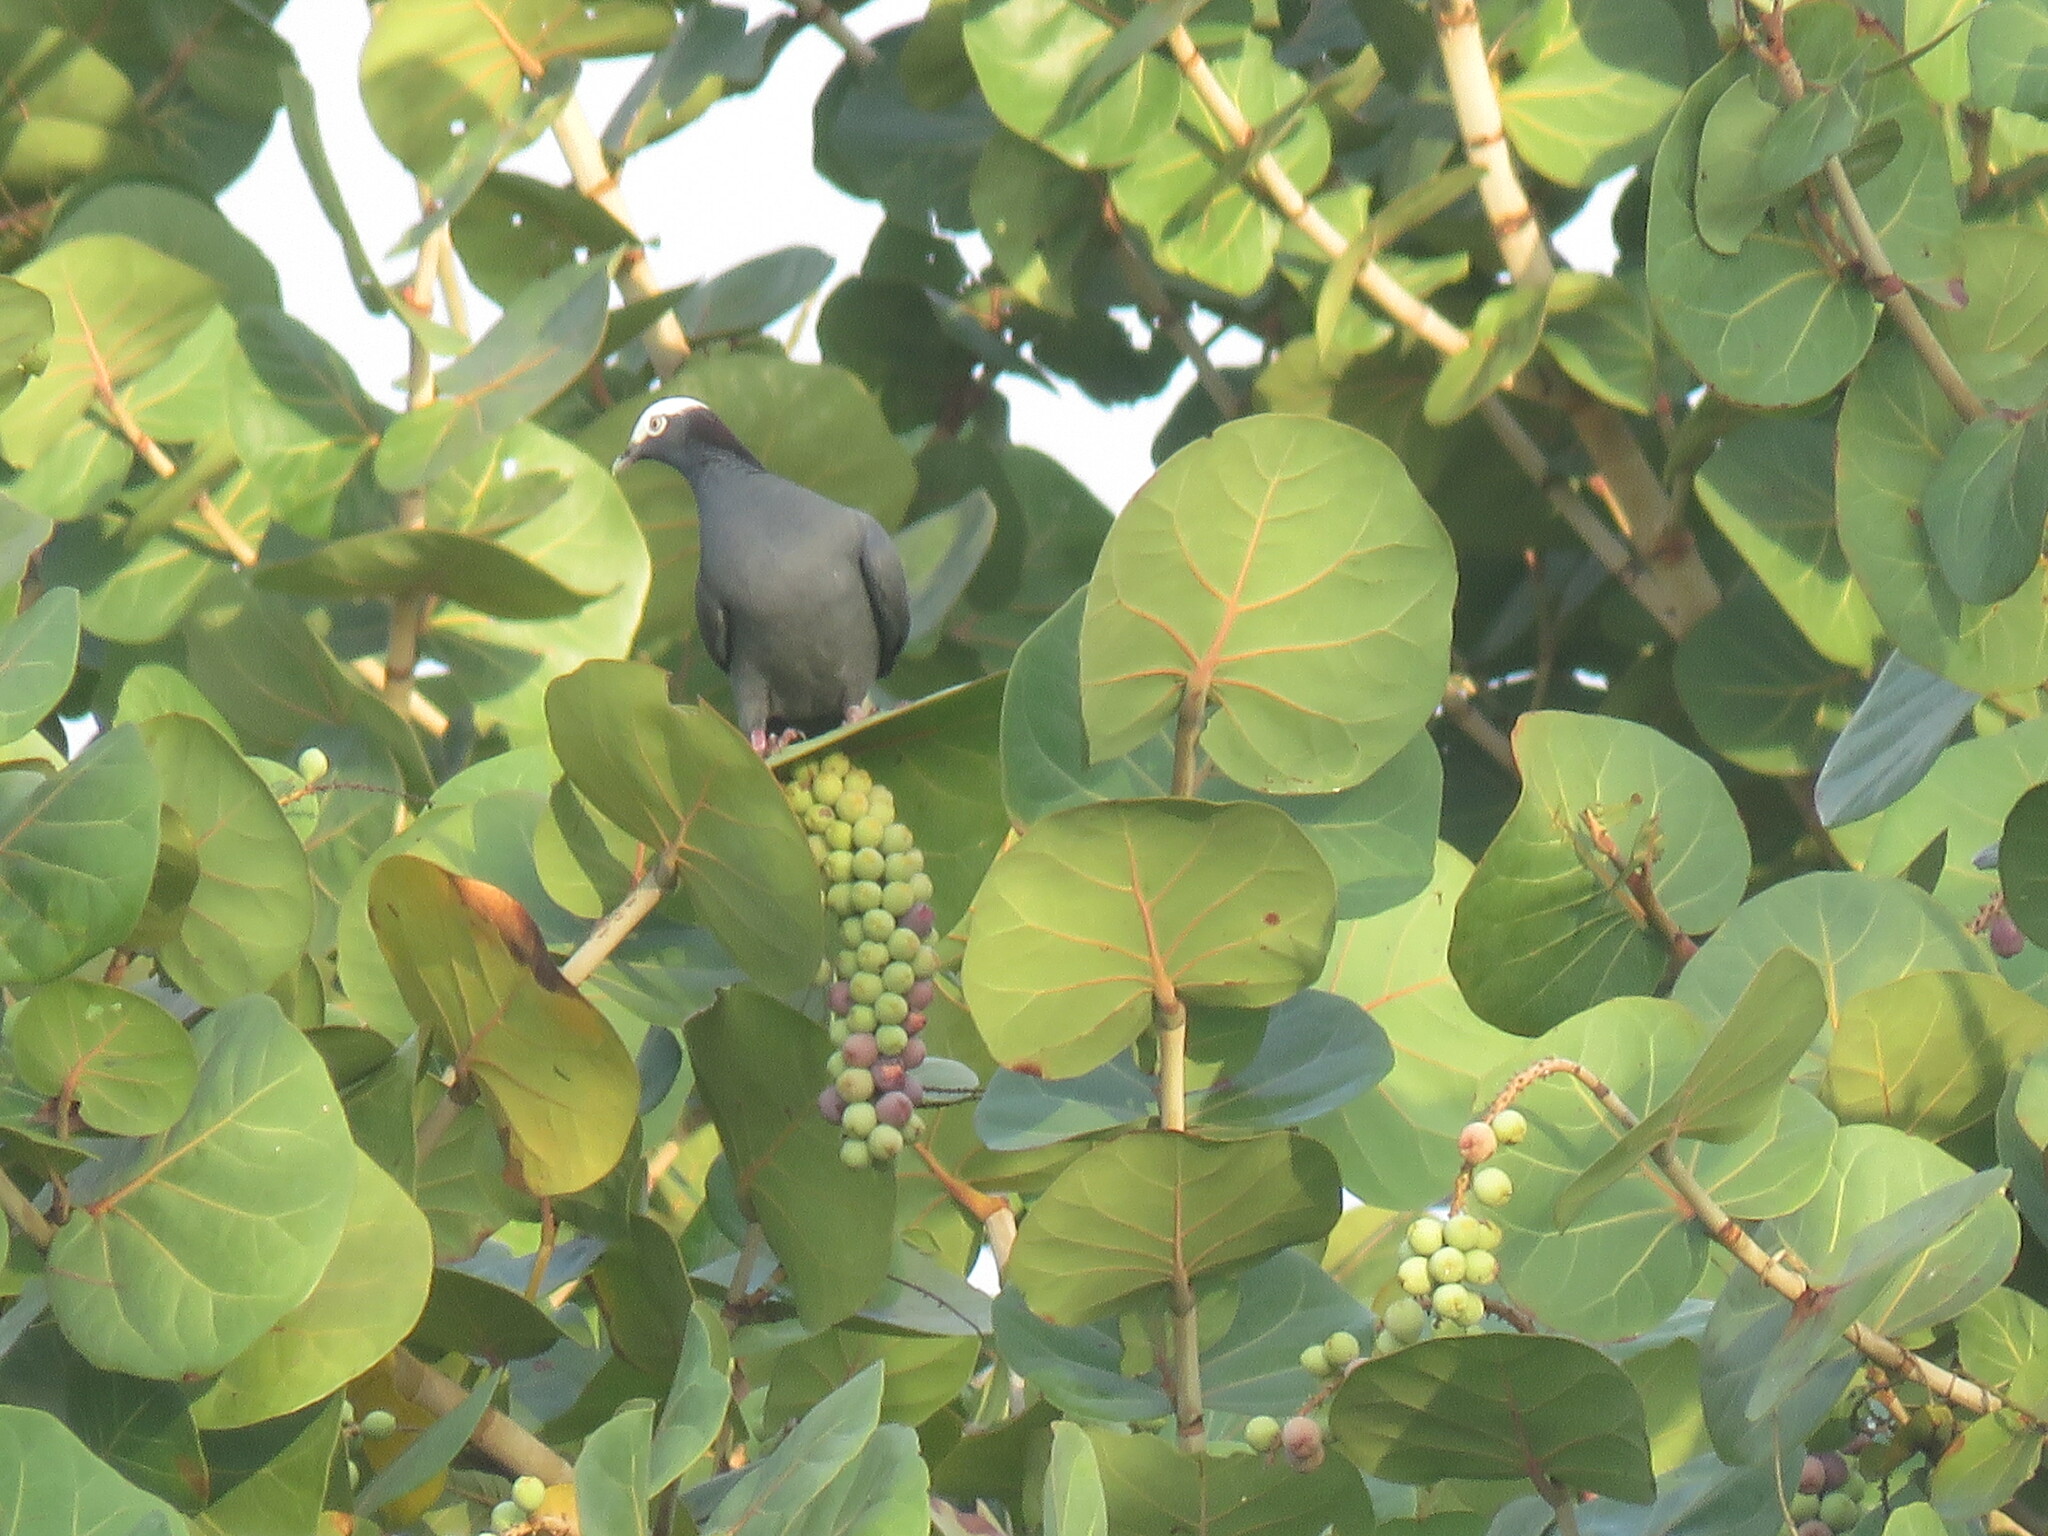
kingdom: Animalia
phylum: Chordata
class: Aves
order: Columbiformes
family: Columbidae
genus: Patagioenas
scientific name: Patagioenas leucocephala
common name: White-crowned pigeon
